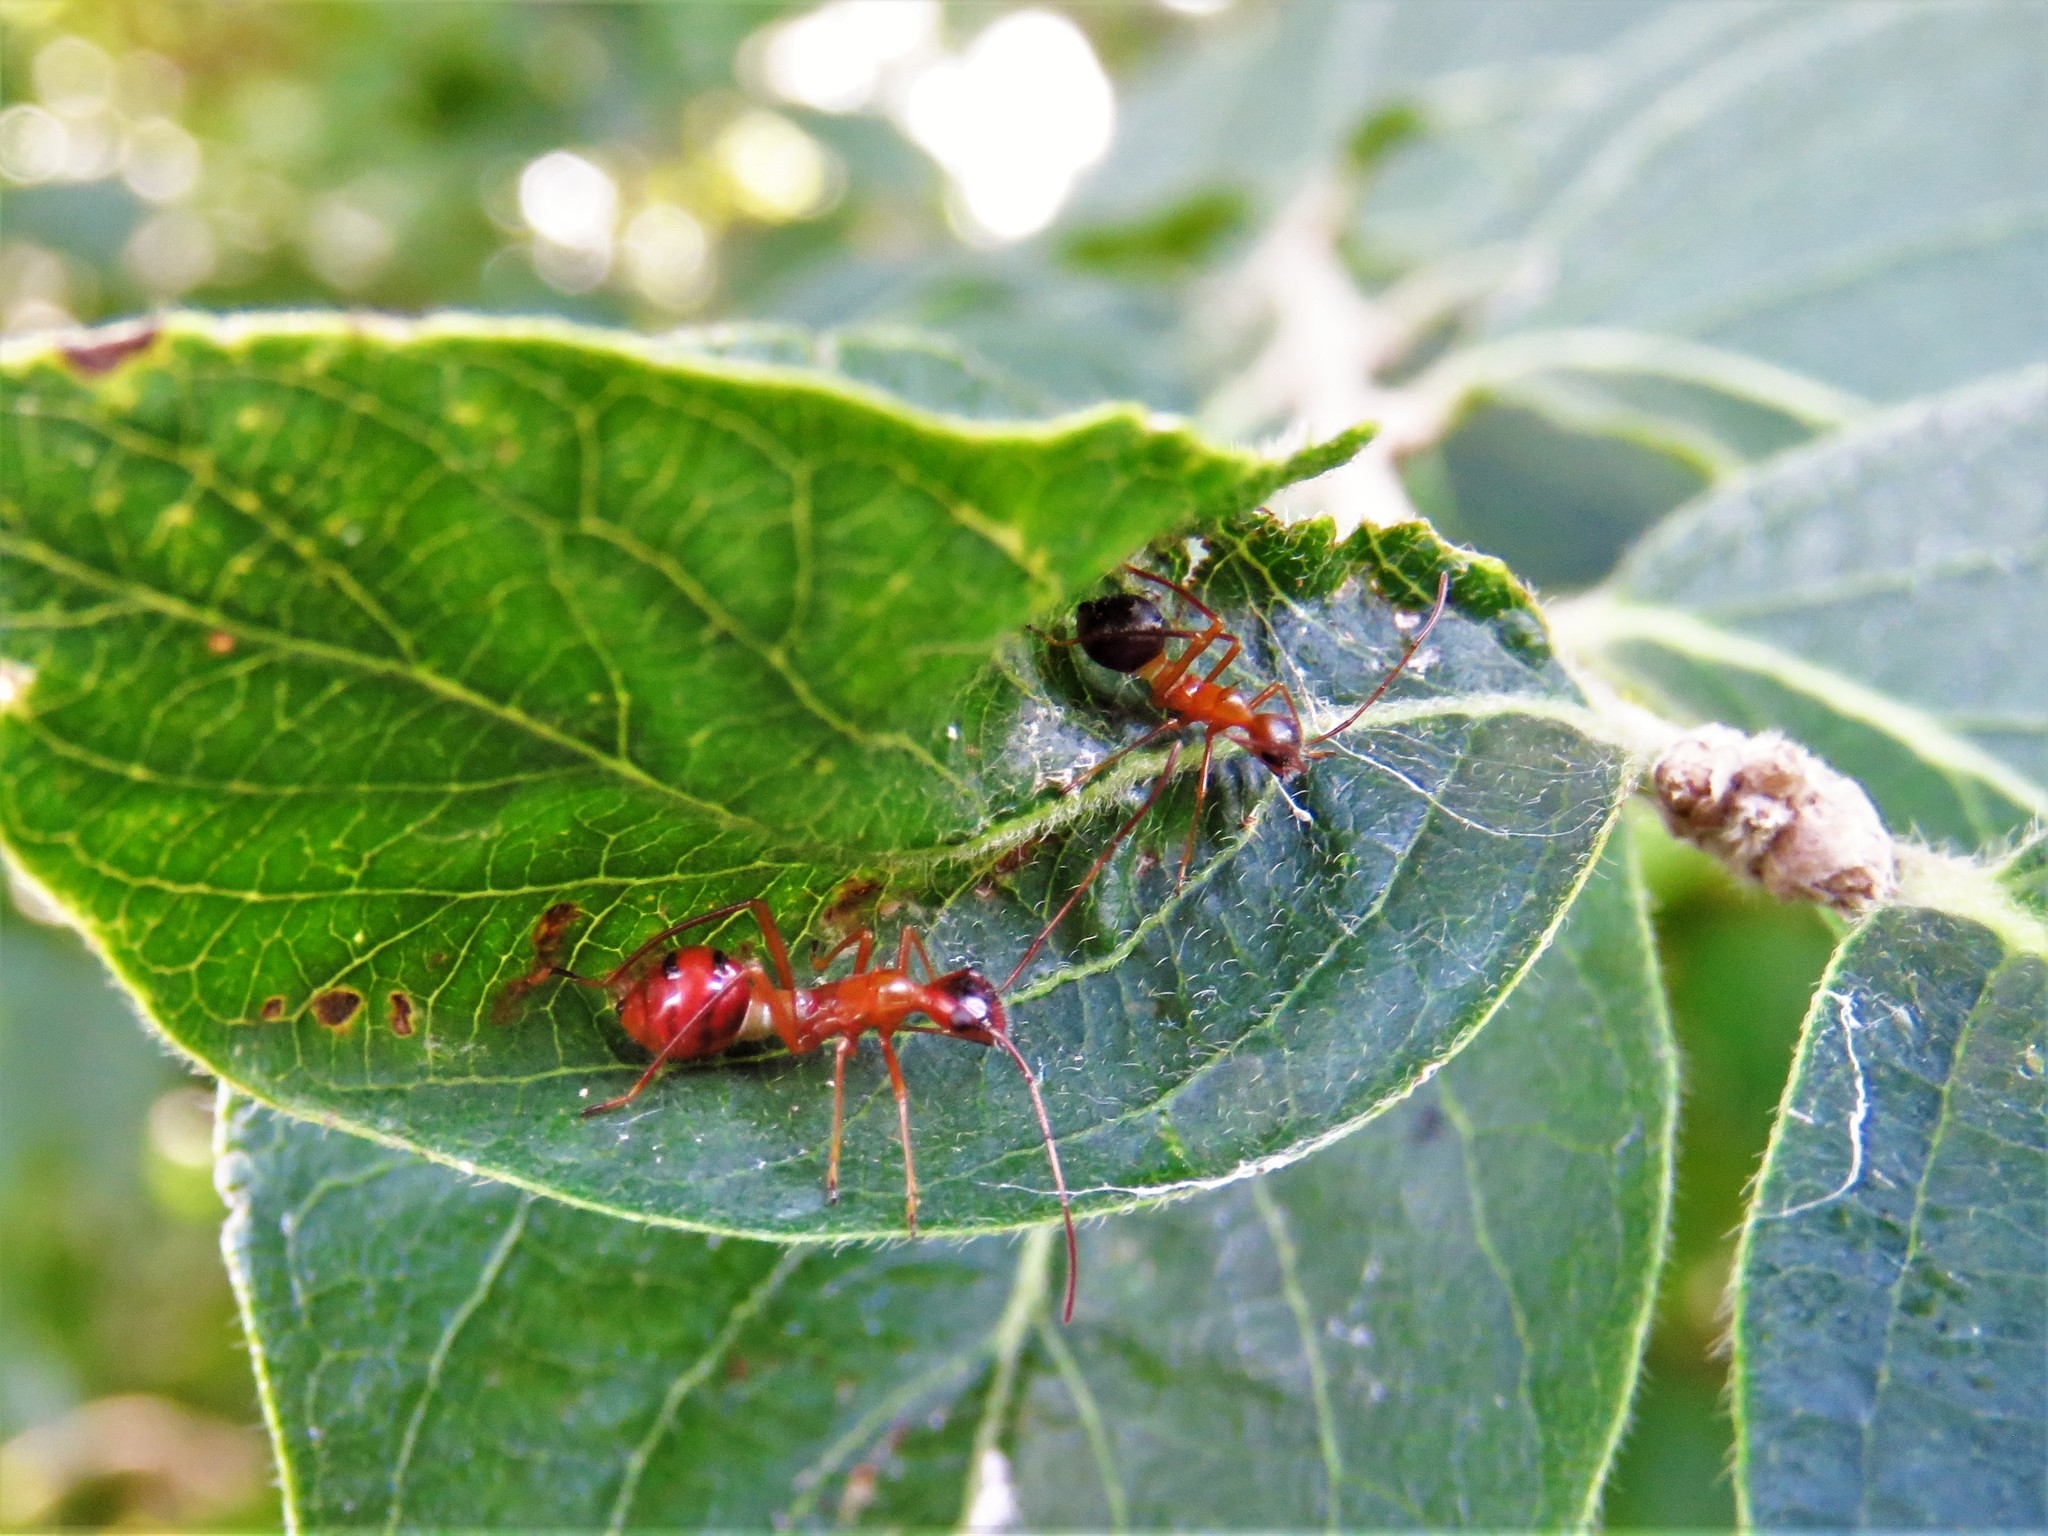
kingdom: Animalia
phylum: Arthropoda
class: Insecta
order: Hemiptera
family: Alydidae
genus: Hyalymenus
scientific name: Hyalymenus tarsatus
